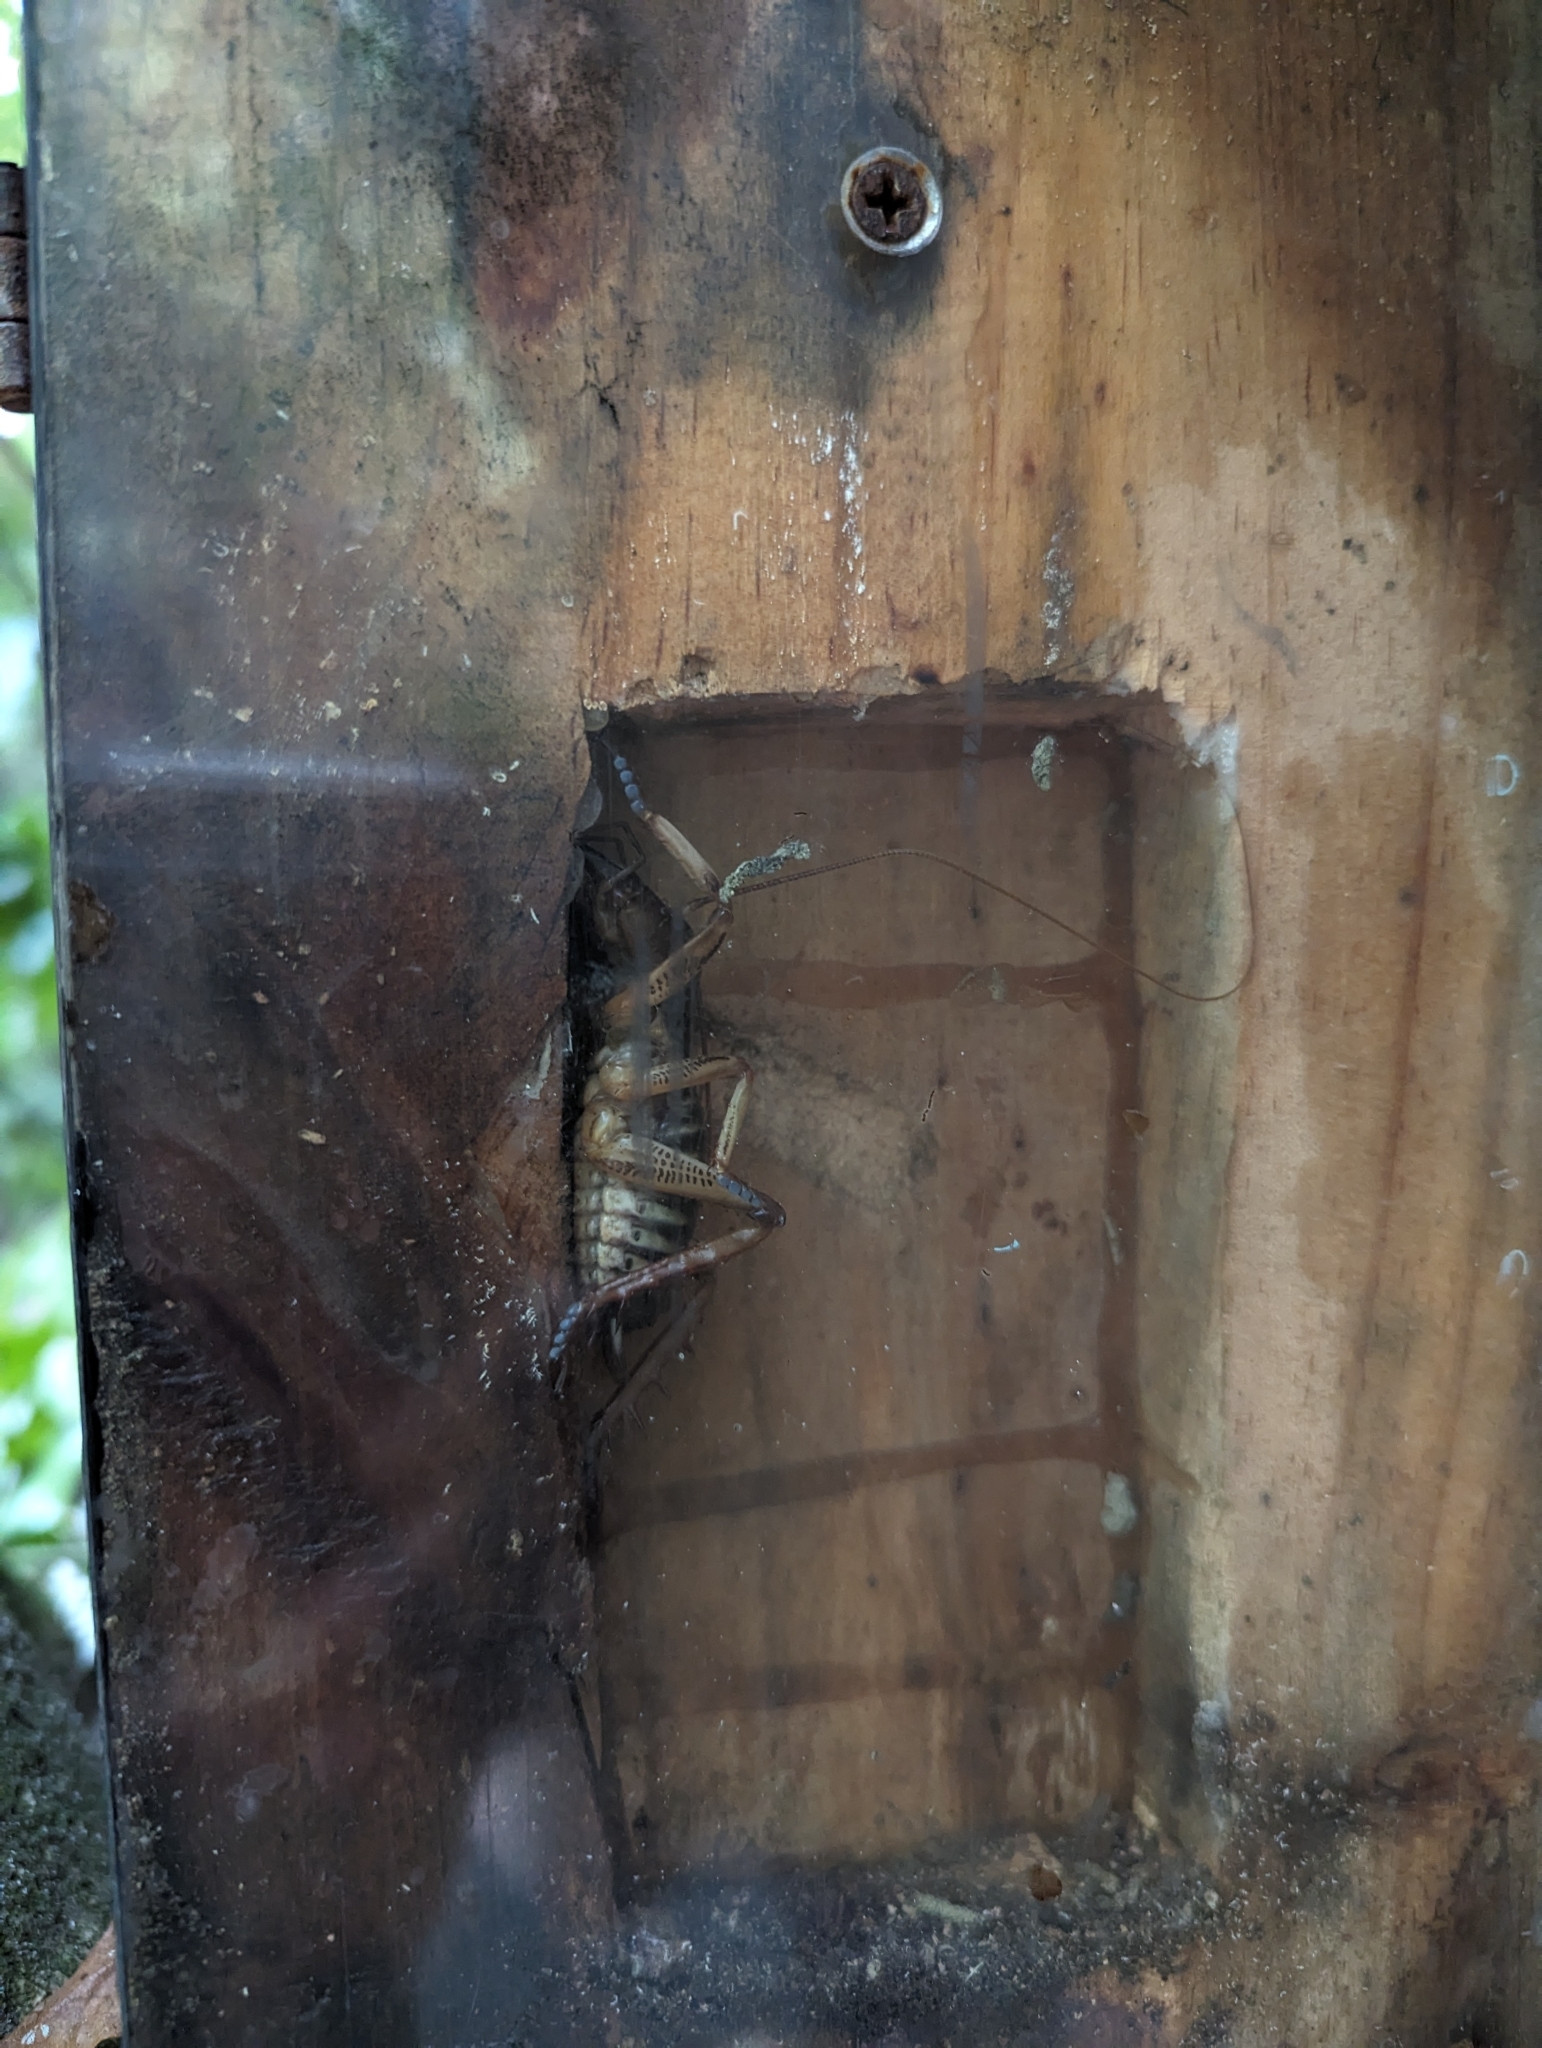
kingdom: Animalia
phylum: Arthropoda
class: Insecta
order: Orthoptera
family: Anostostomatidae
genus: Hemideina
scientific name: Hemideina crassidens
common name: Wellington tree weta
